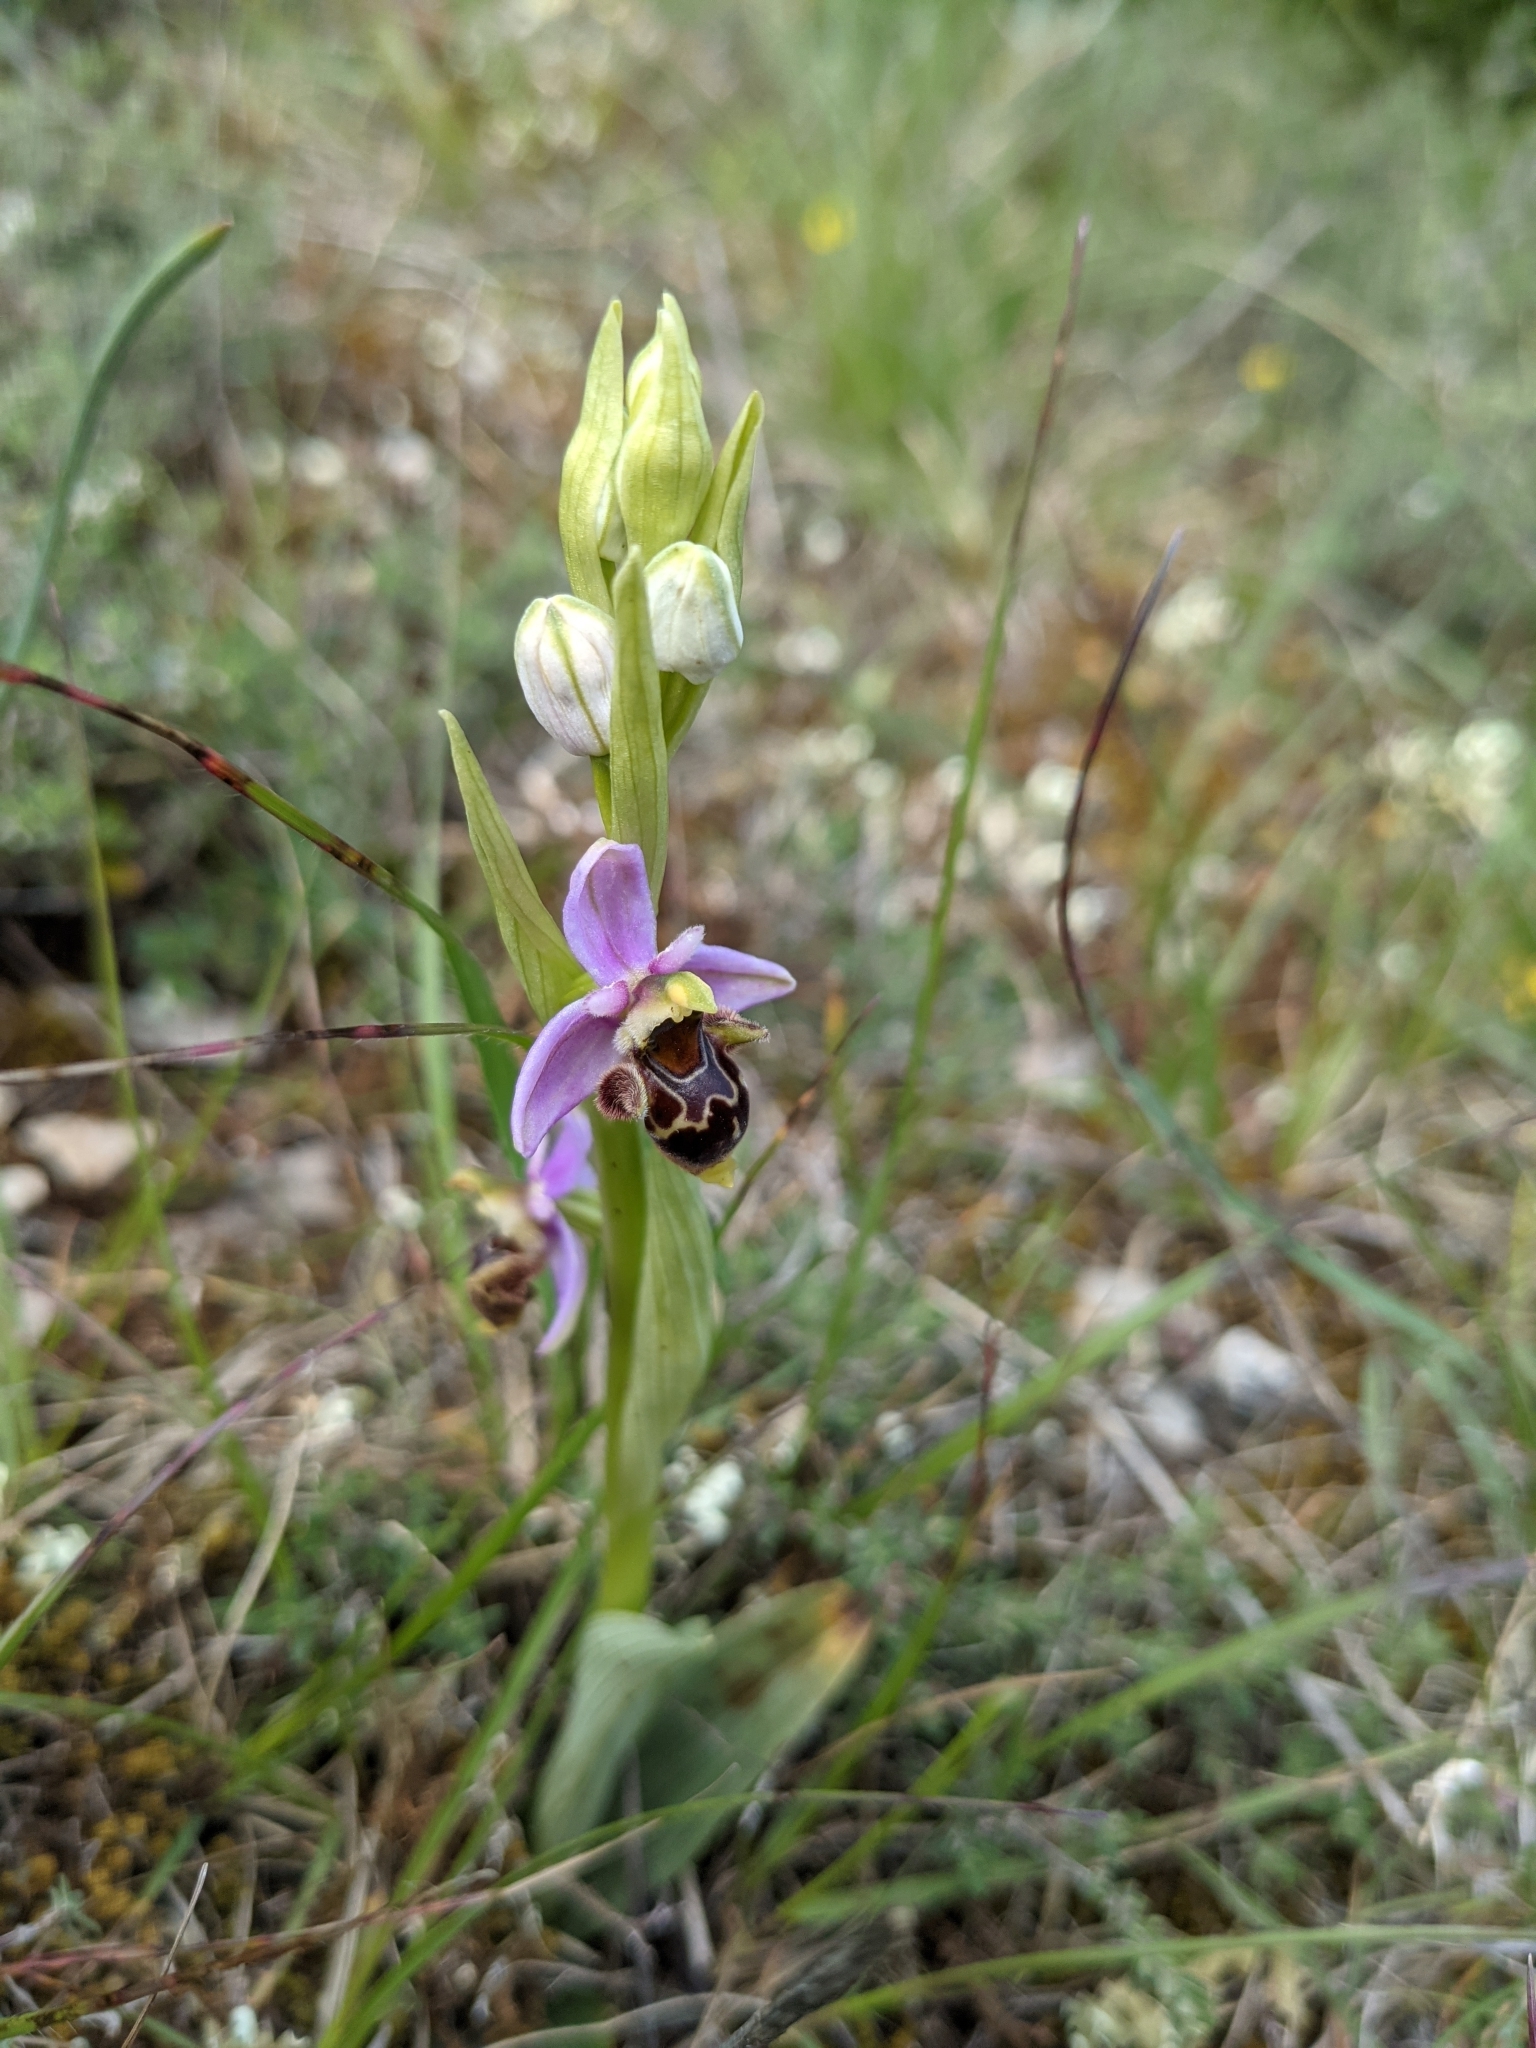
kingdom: Plantae
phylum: Tracheophyta
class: Liliopsida
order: Asparagales
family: Orchidaceae
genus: Ophrys
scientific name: Ophrys scolopax
